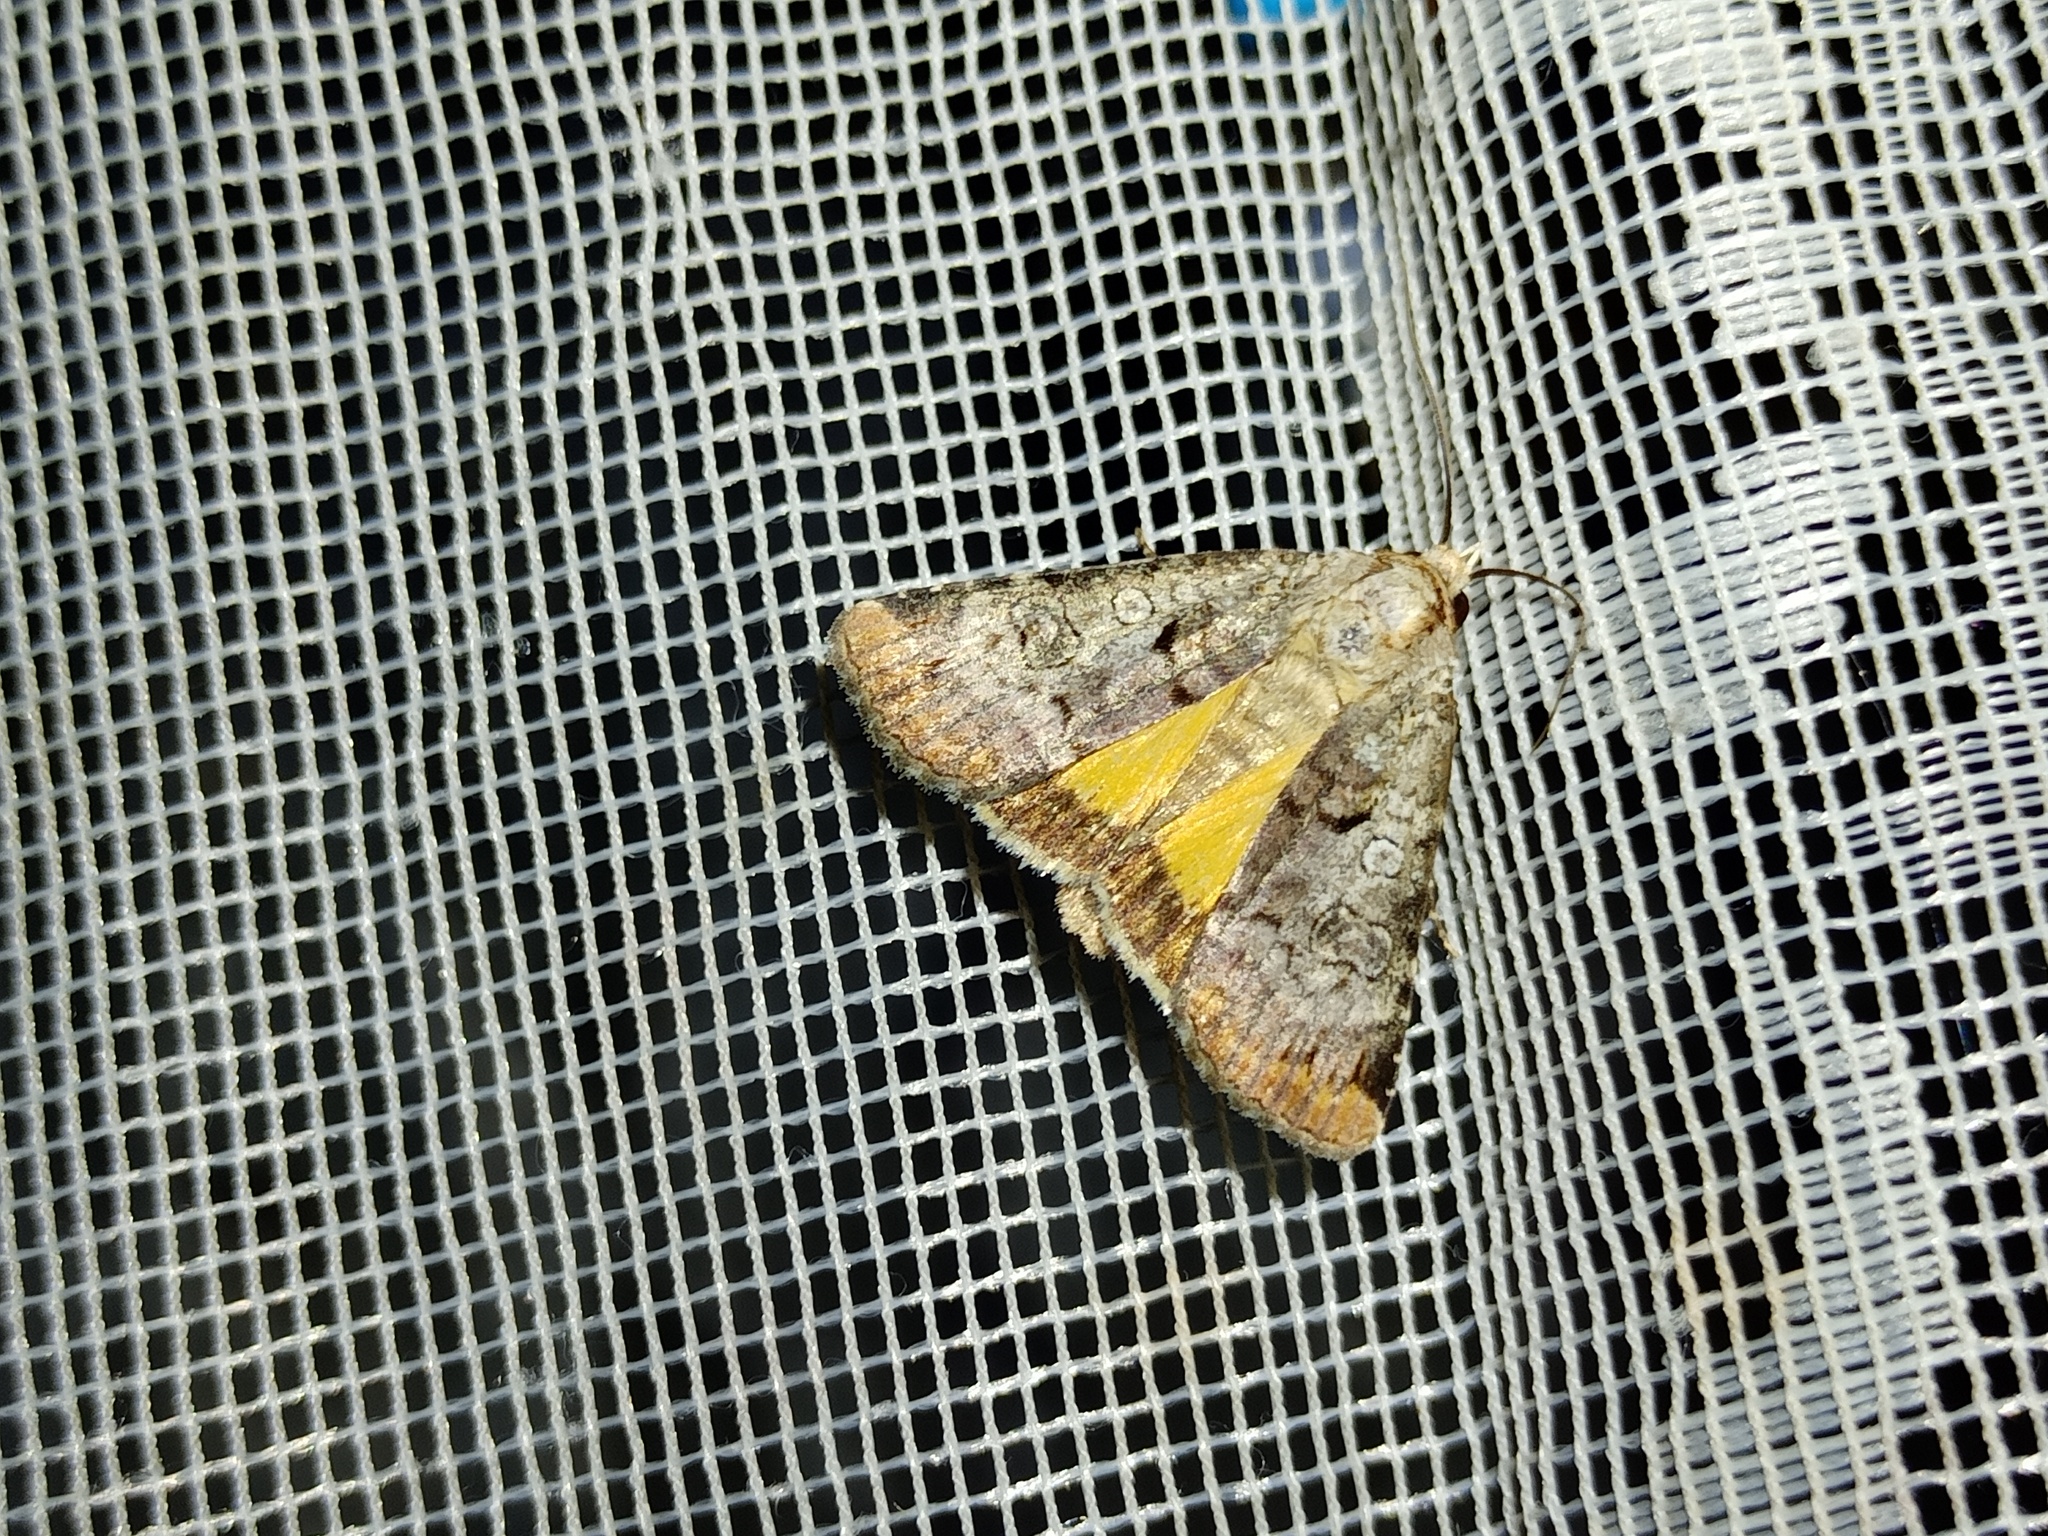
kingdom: Animalia
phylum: Arthropoda
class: Insecta
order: Lepidoptera
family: Noctuidae
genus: Epilecta
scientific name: Epilecta linogrisea
